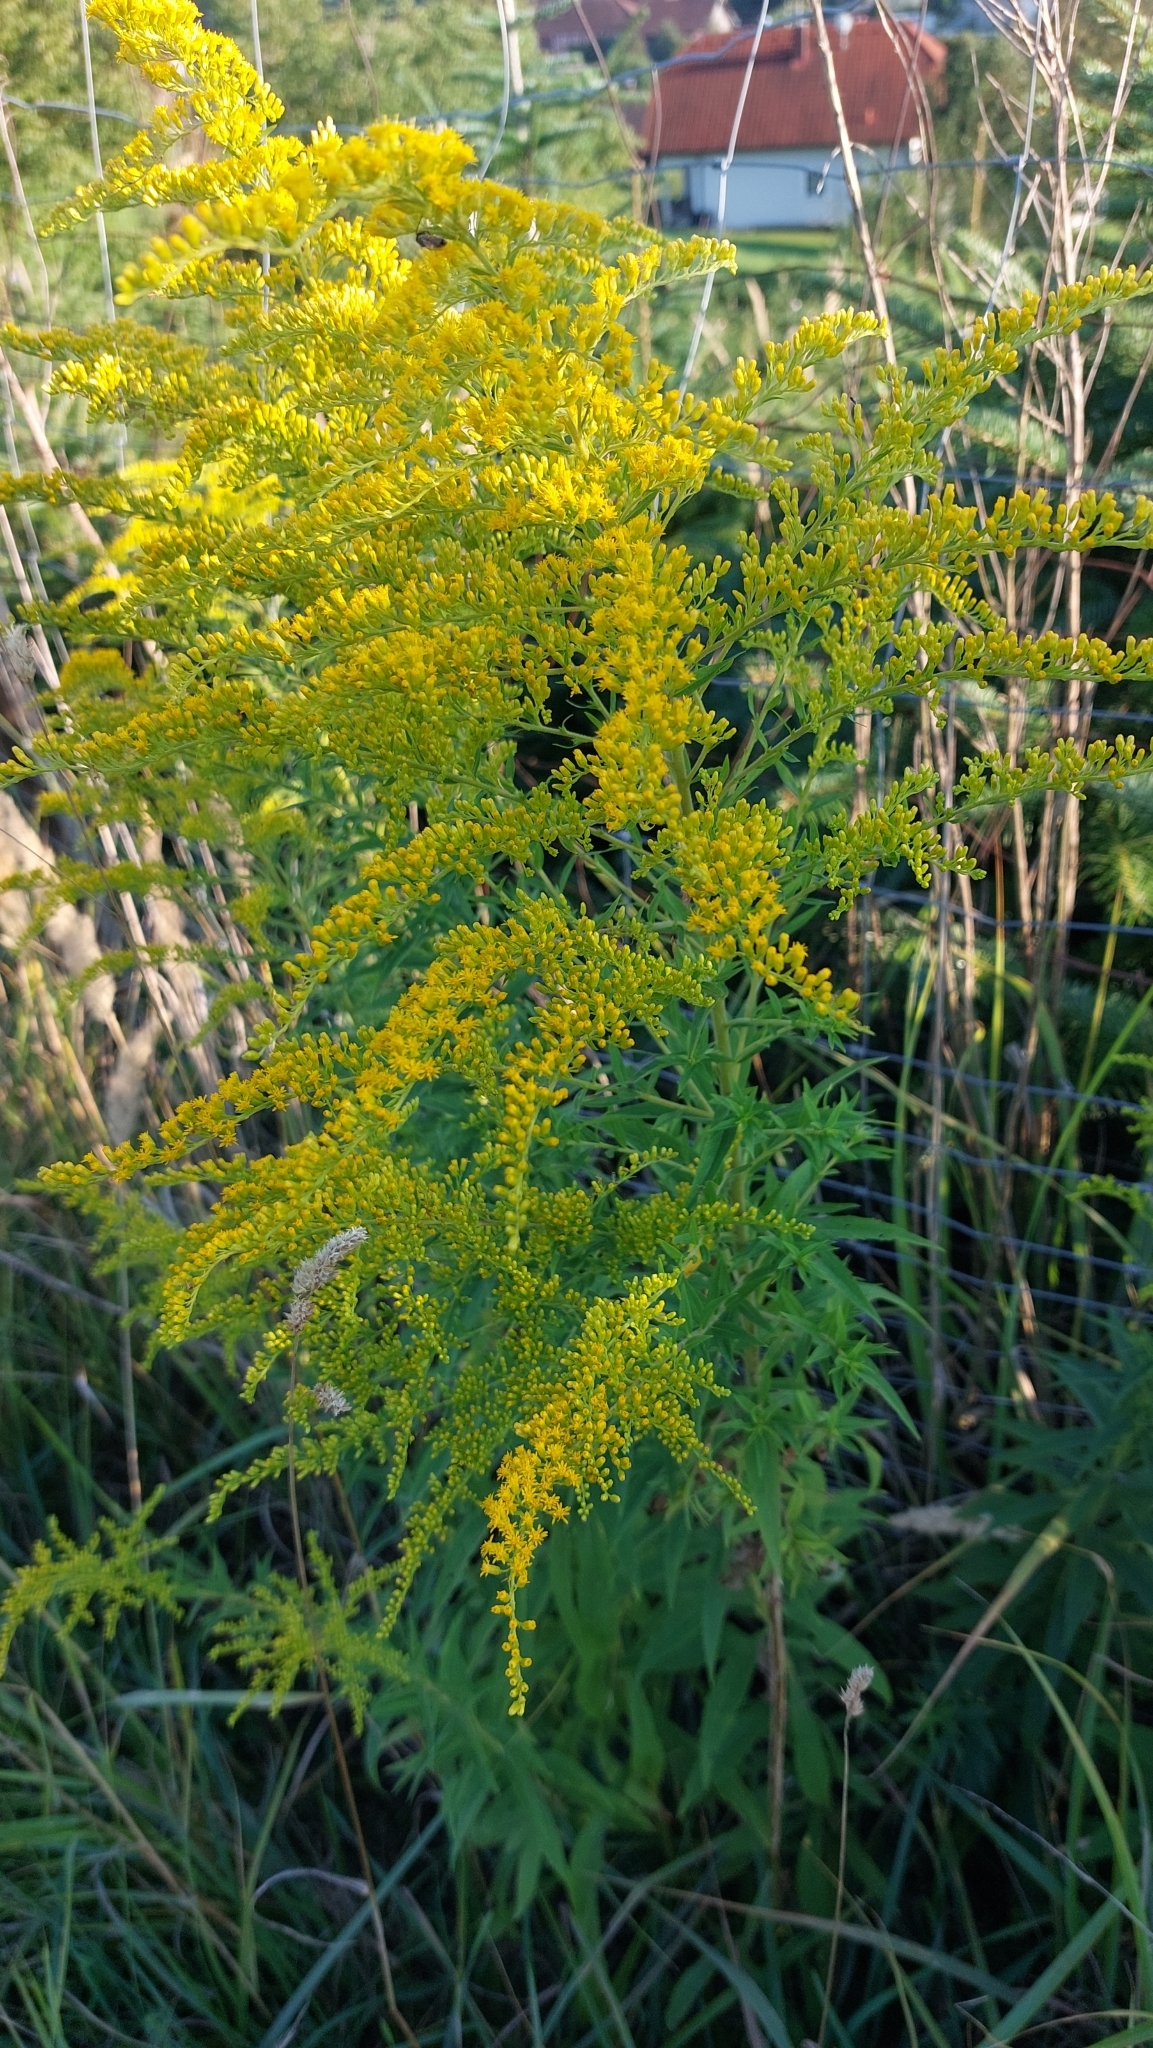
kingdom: Plantae
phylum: Tracheophyta
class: Magnoliopsida
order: Asterales
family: Asteraceae
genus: Solidago
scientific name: Solidago canadensis
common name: Canada goldenrod
